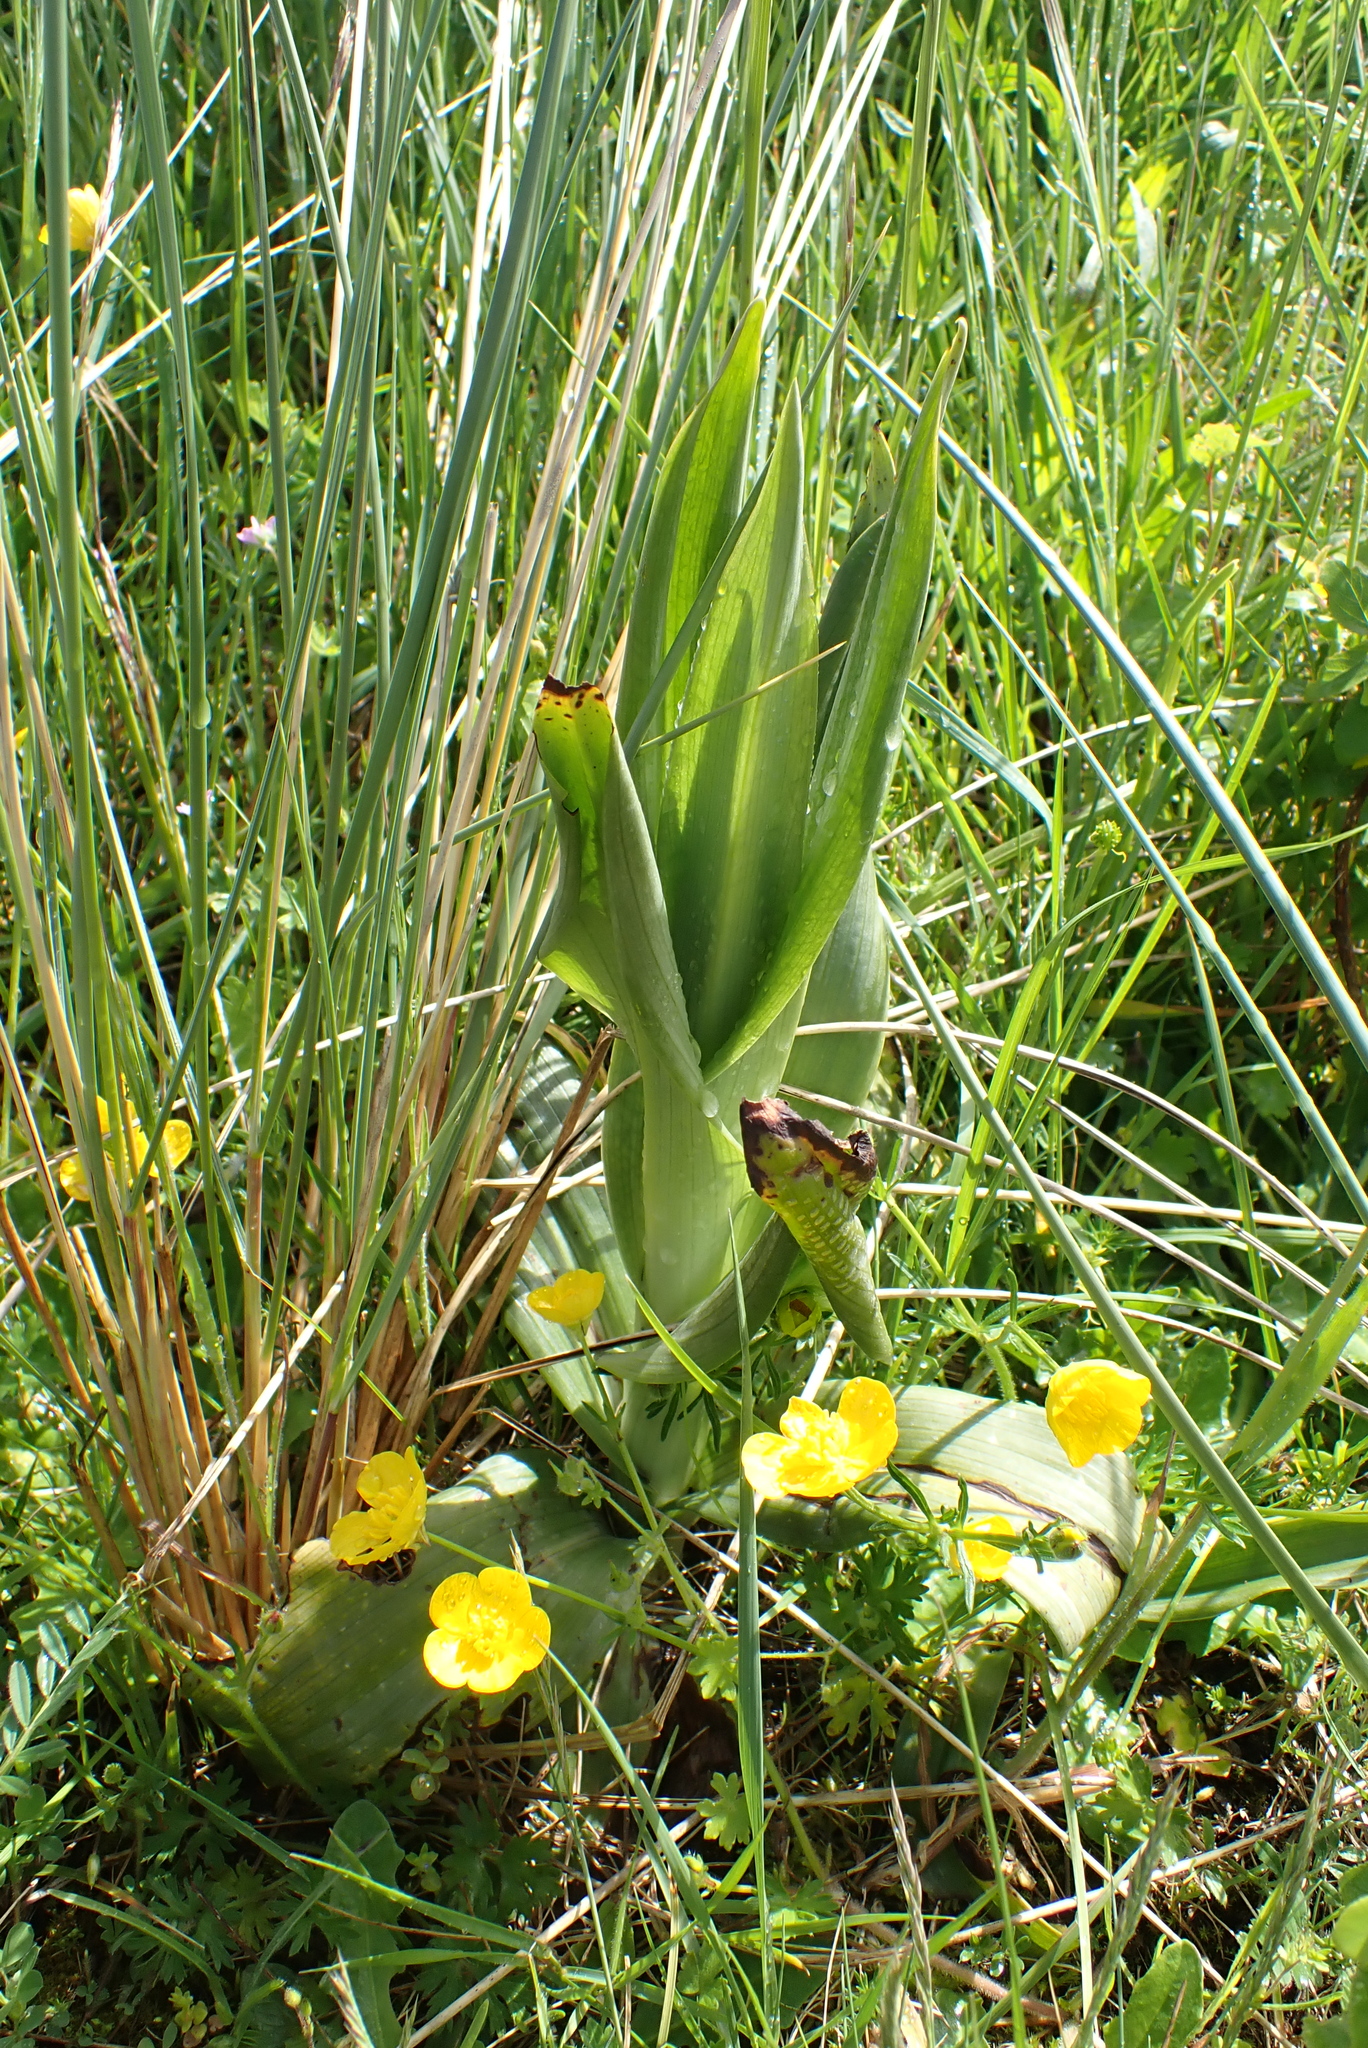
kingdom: Plantae
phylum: Tracheophyta
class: Liliopsida
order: Asparagales
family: Orchidaceae
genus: Himantoglossum
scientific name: Himantoglossum hircinum
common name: Lizard orchid
